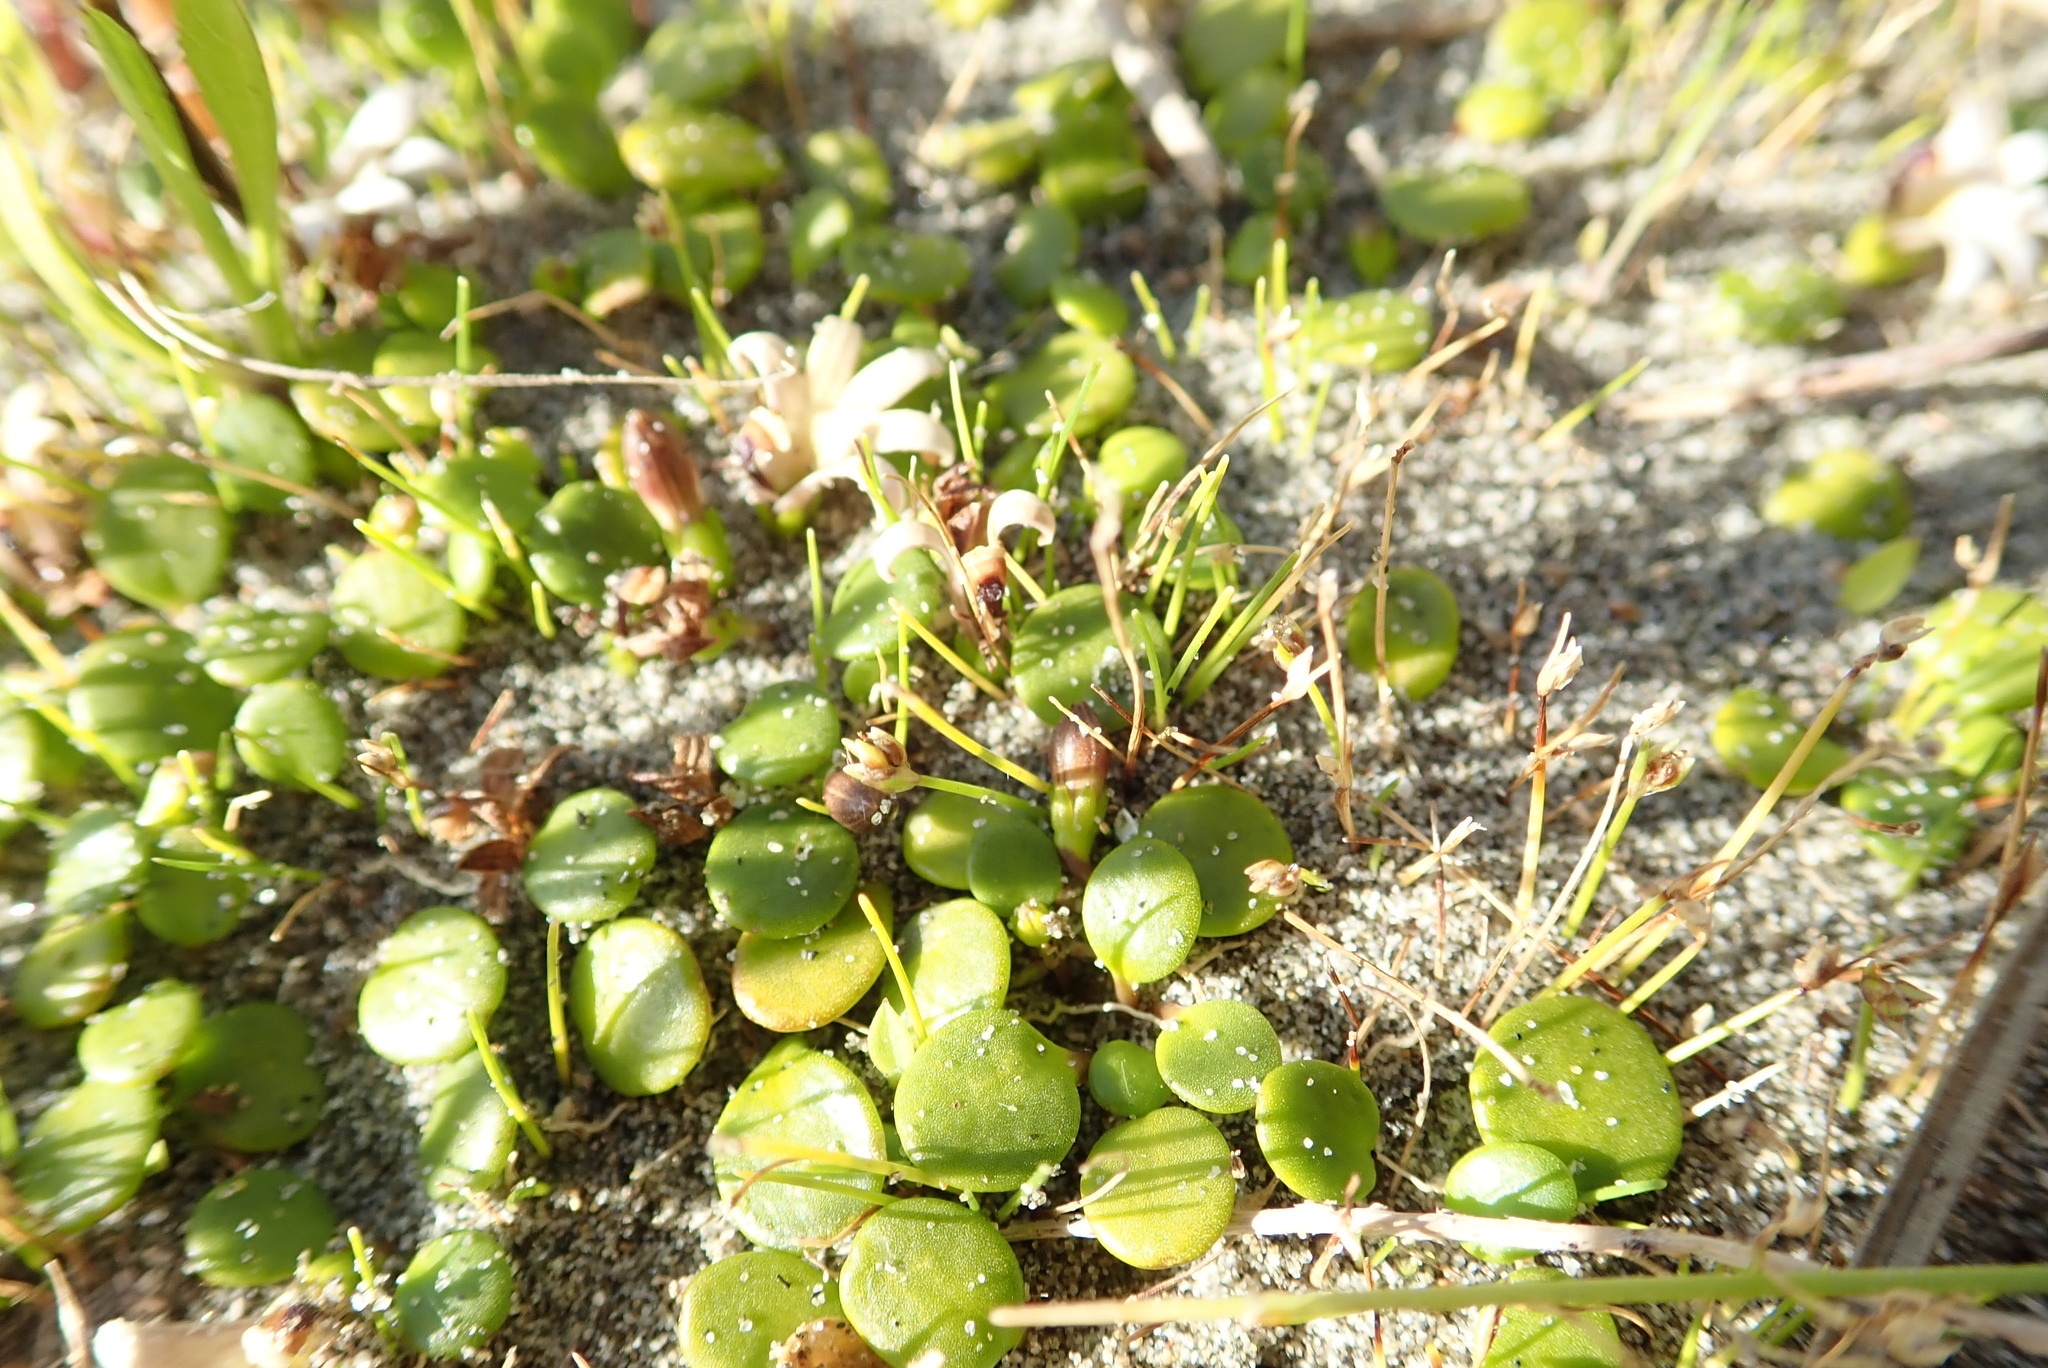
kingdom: Plantae
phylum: Tracheophyta
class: Liliopsida
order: Poales
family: Cyperaceae
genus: Isolepis
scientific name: Isolepis cernua
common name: Slender club-rush
